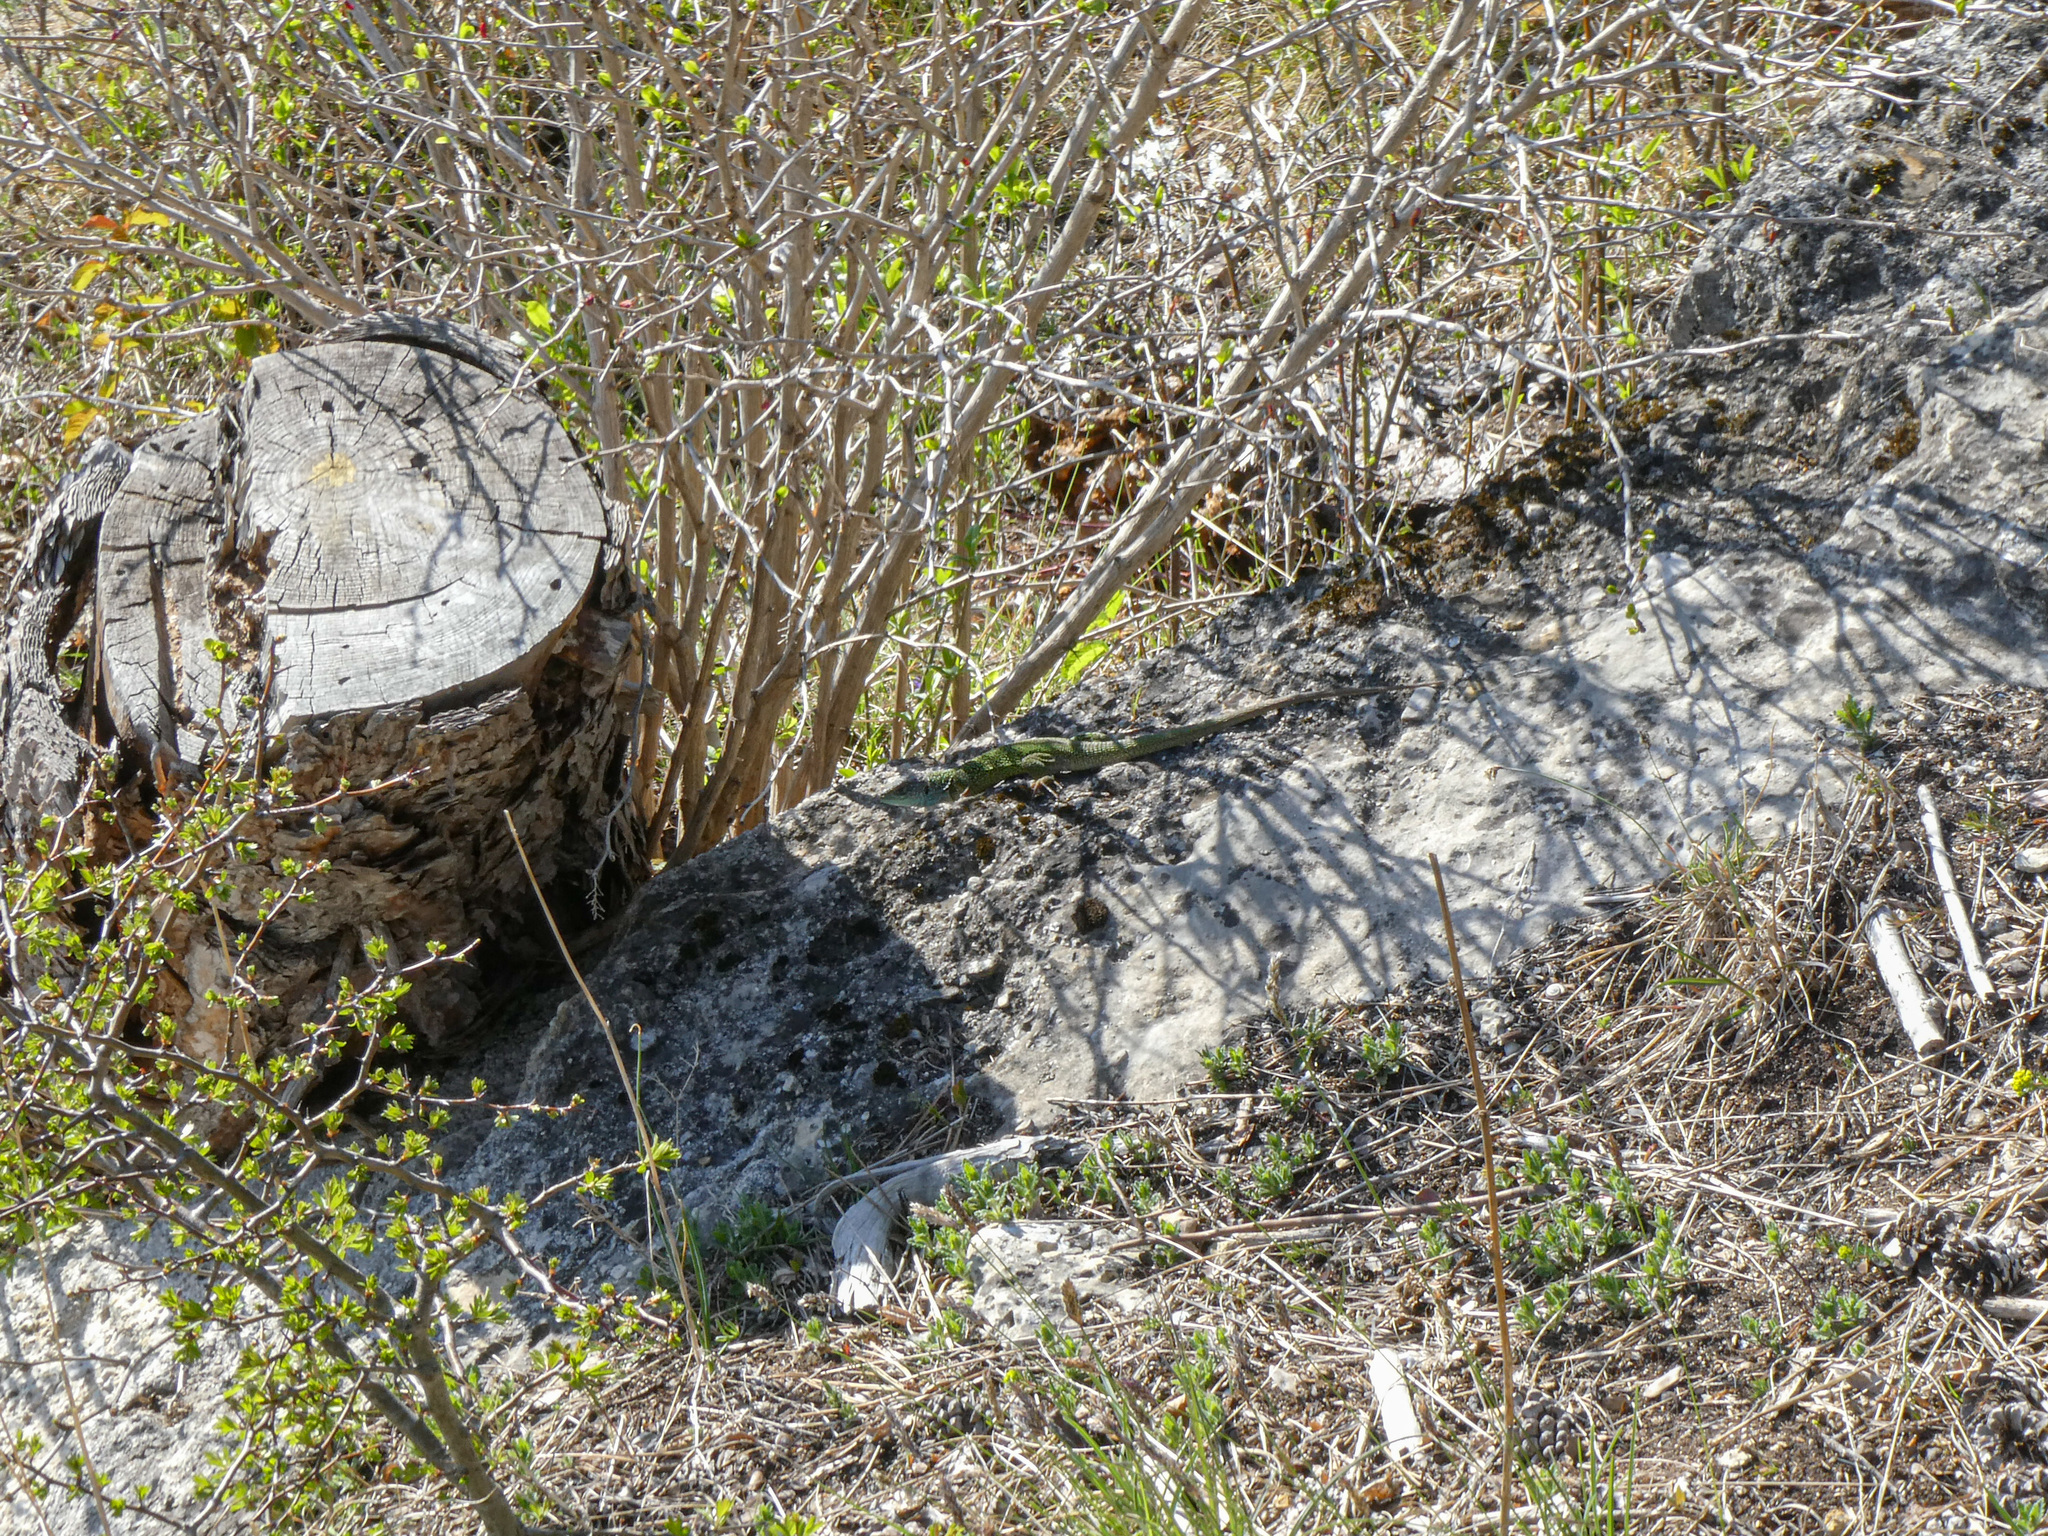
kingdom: Animalia
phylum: Chordata
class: Squamata
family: Lacertidae
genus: Lacerta
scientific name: Lacerta viridis
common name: European green lizard
